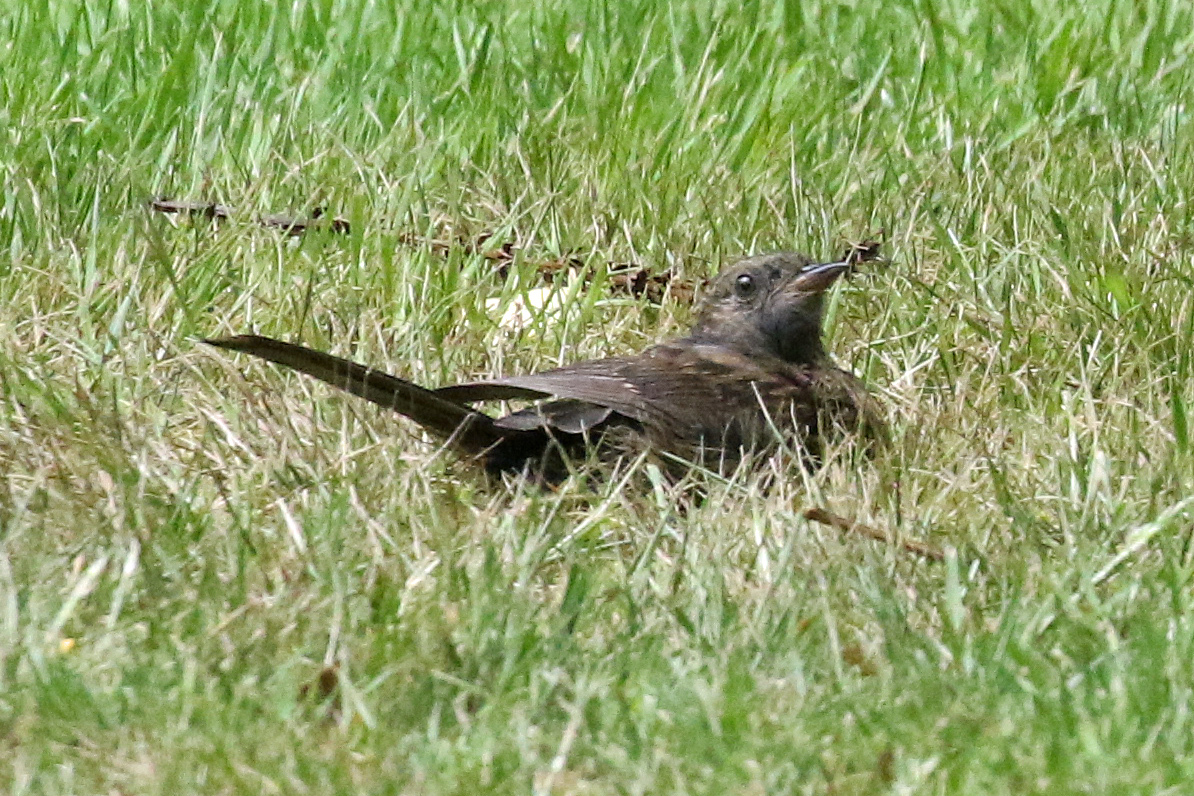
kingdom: Animalia
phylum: Chordata
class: Aves
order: Passeriformes
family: Prunellidae
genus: Prunella
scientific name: Prunella modularis
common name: Dunnock
